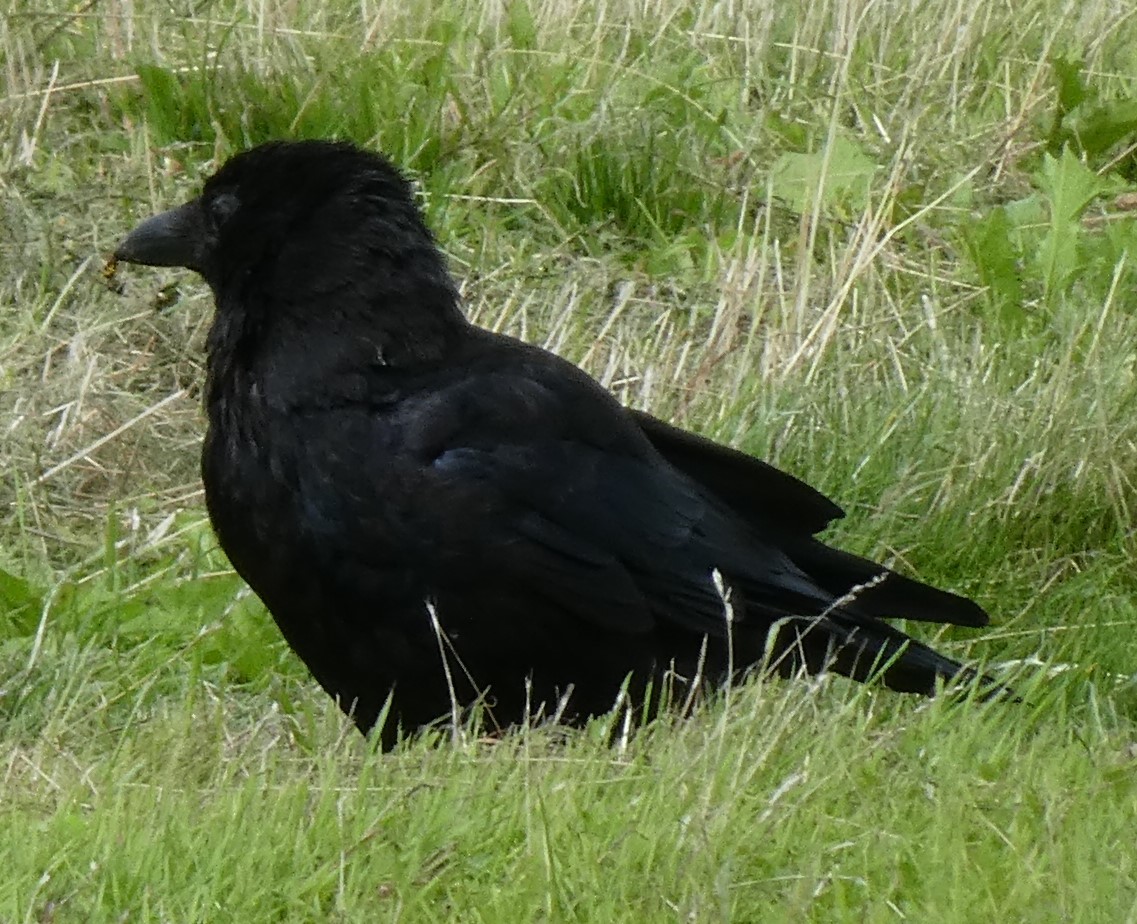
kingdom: Animalia
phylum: Chordata
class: Aves
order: Passeriformes
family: Corvidae
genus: Corvus
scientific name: Corvus corone
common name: Carrion crow
